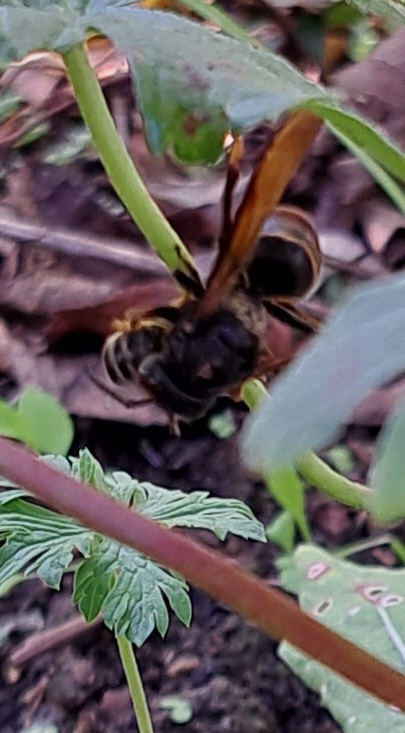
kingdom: Animalia
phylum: Arthropoda
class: Insecta
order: Hymenoptera
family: Vespidae
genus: Vespa
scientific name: Vespa velutina
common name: Asian hornet
